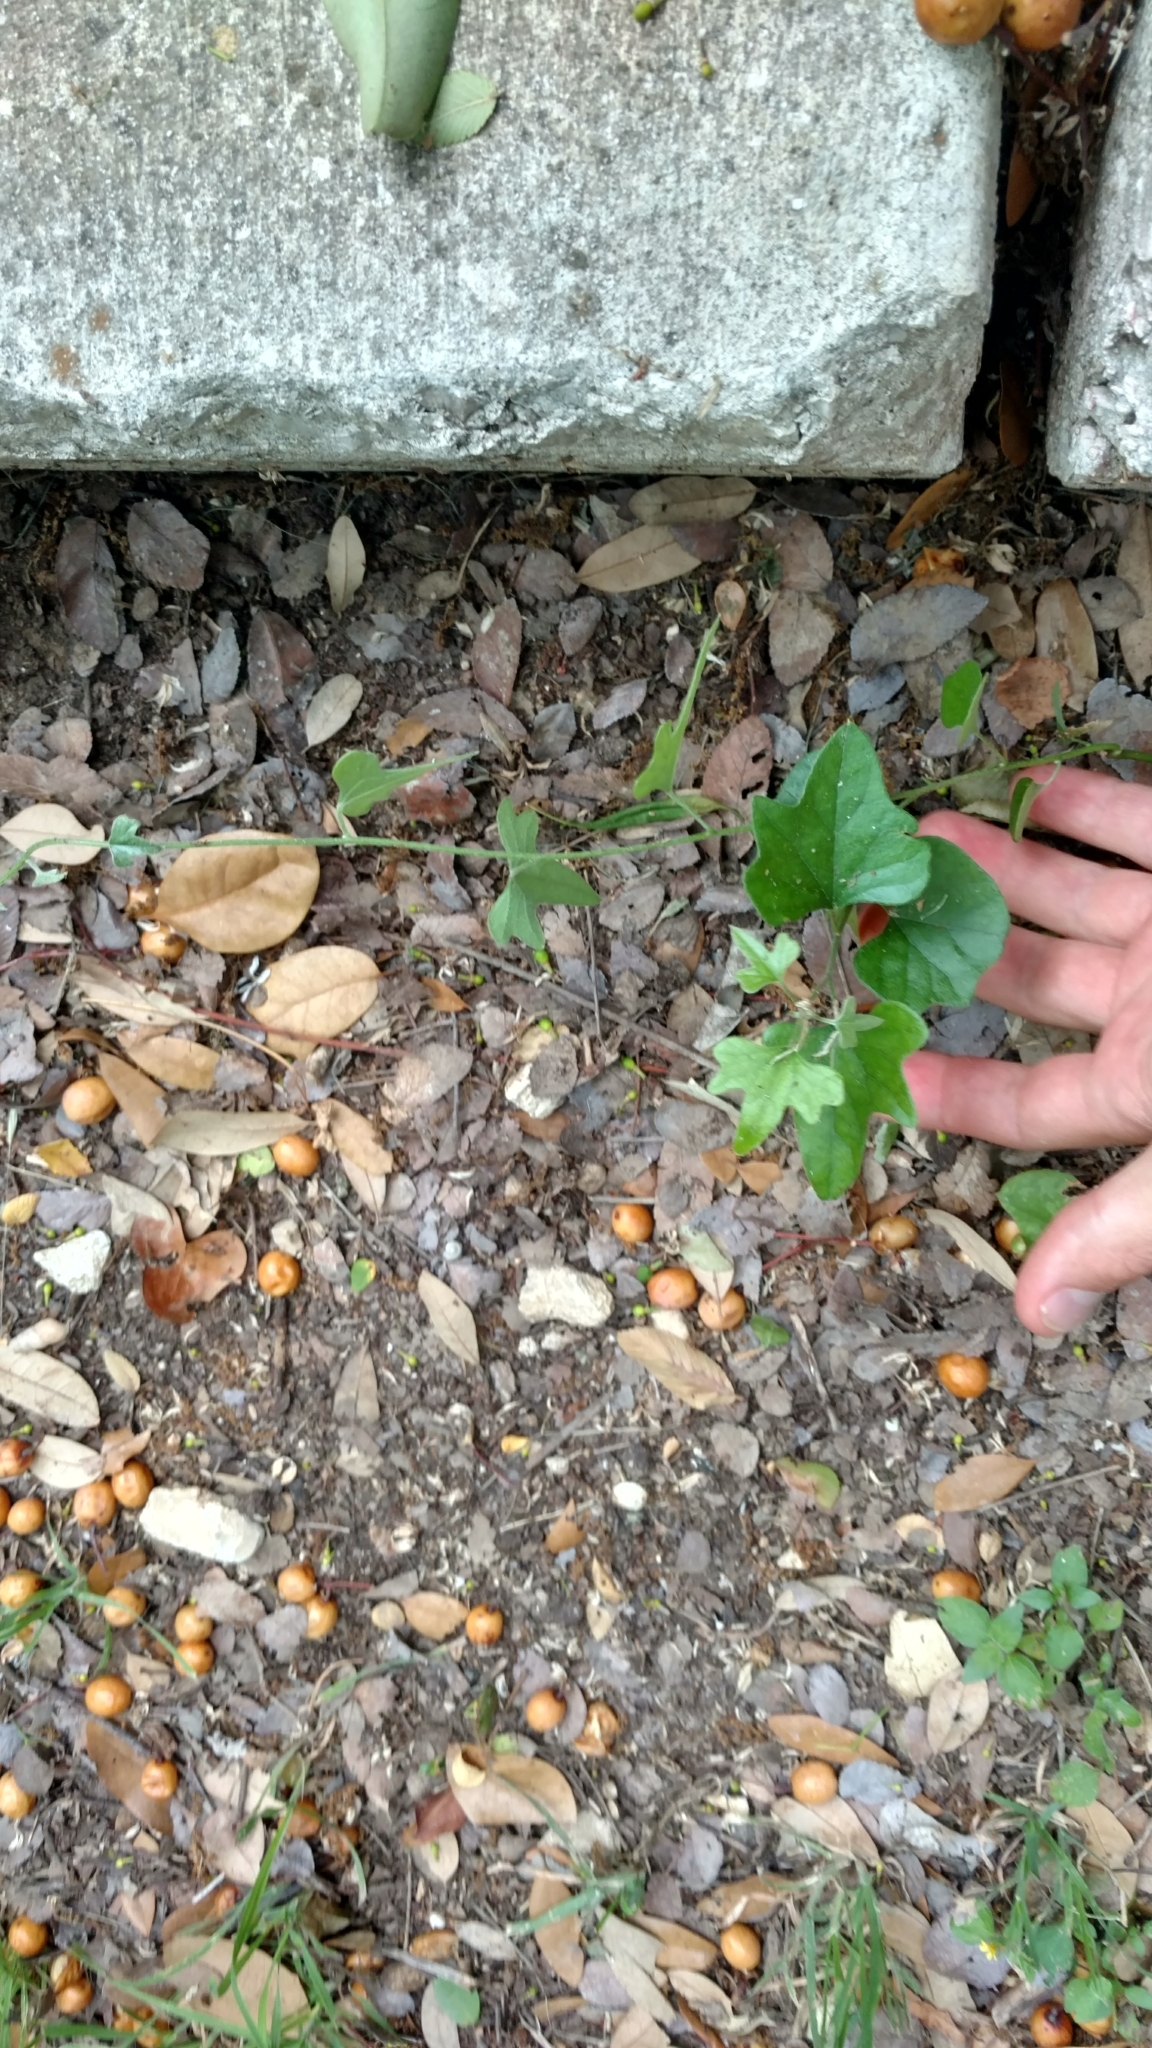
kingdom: Plantae
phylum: Tracheophyta
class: Magnoliopsida
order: Ranunculales
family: Menispermaceae
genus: Cocculus
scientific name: Cocculus carolinus
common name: Carolina moonseed
